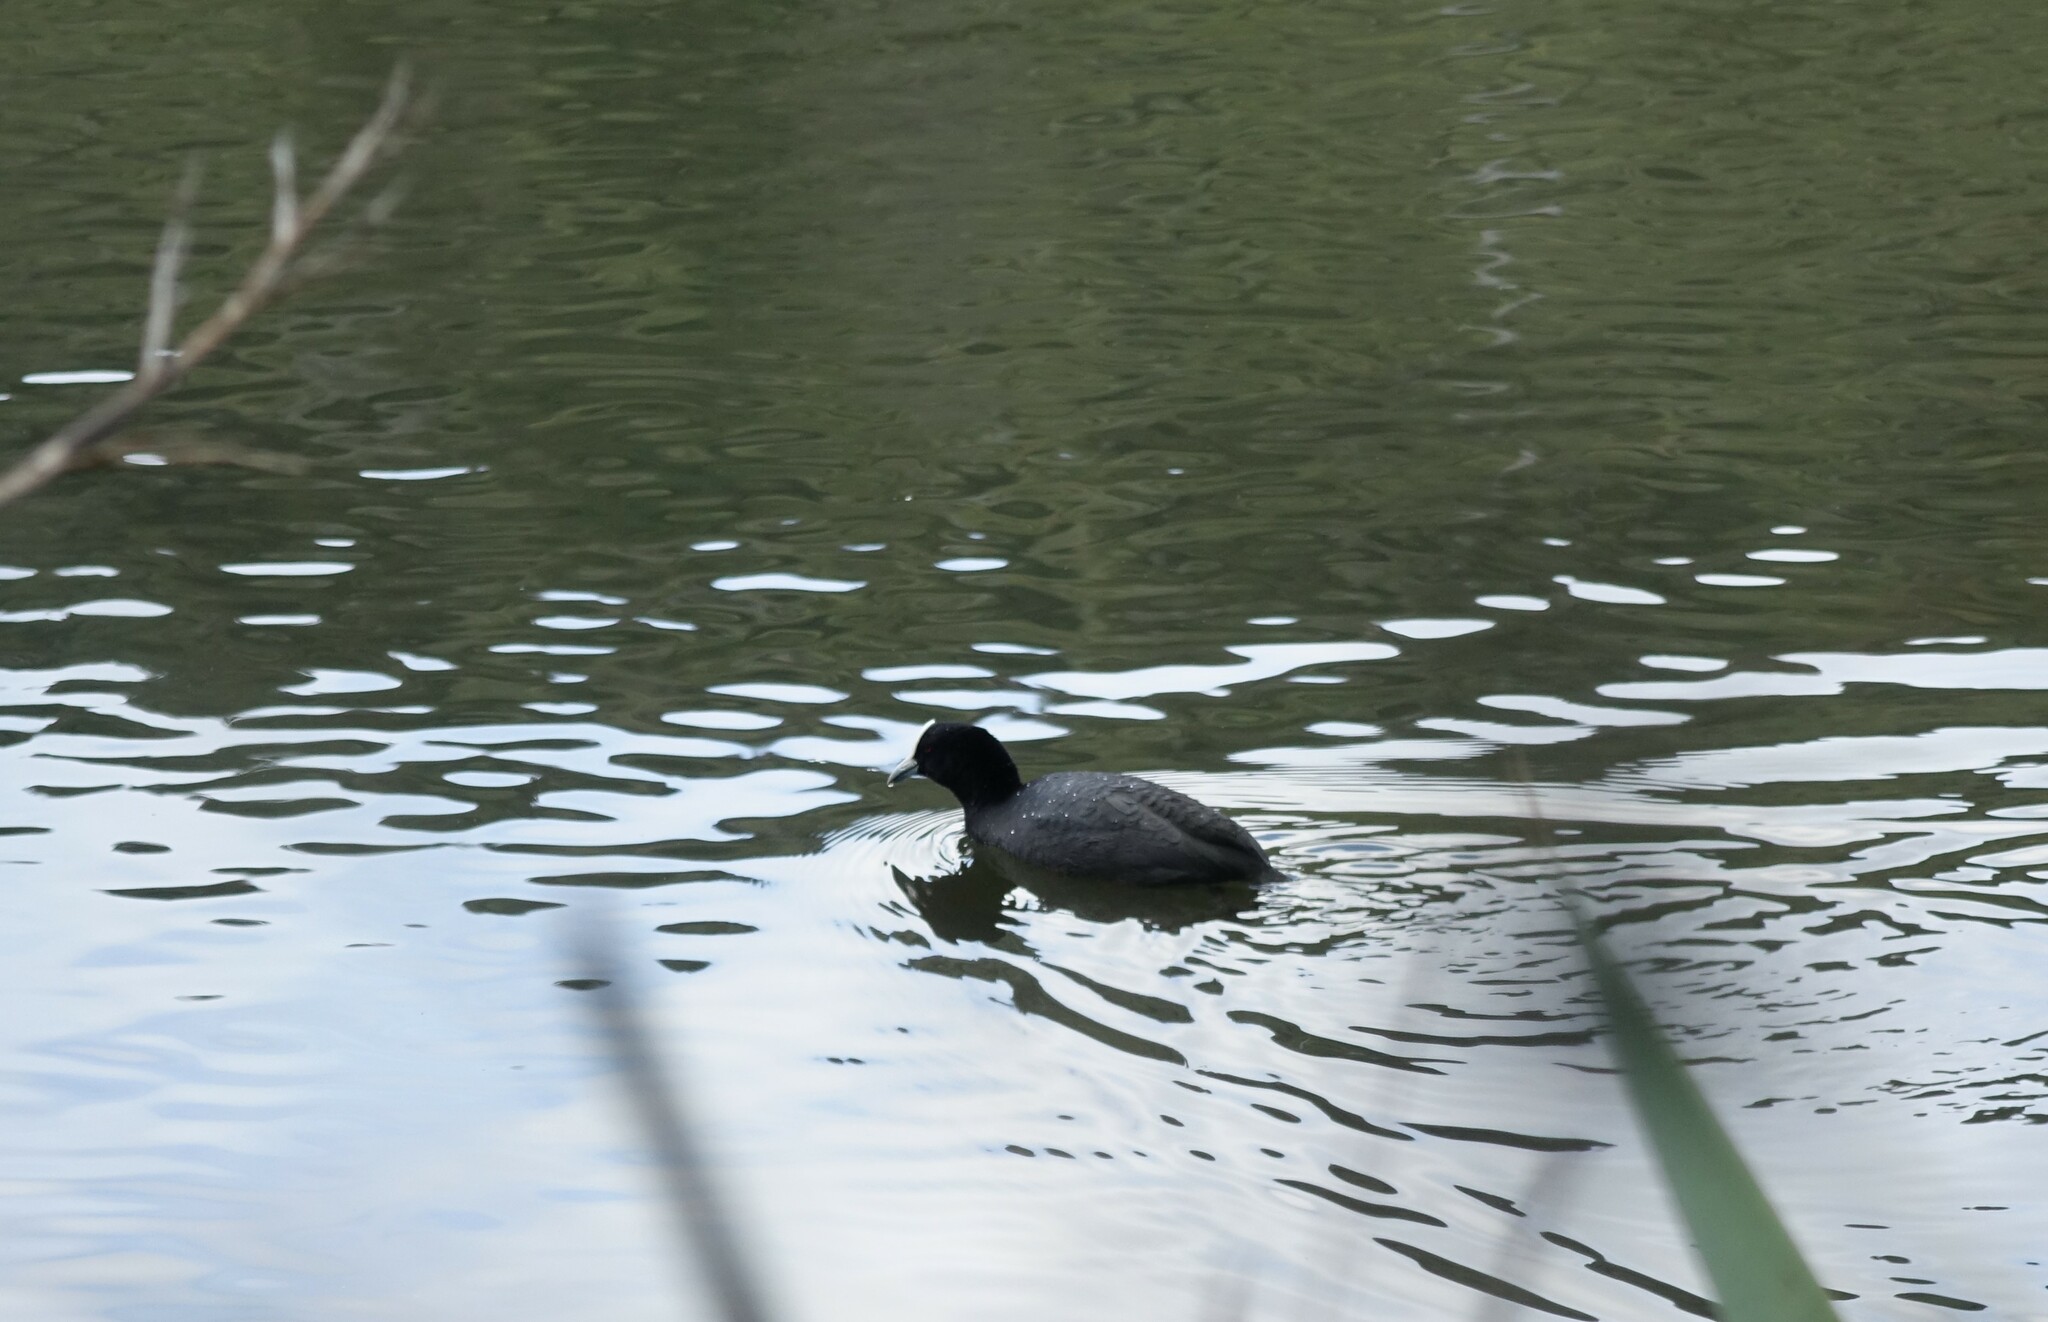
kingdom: Animalia
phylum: Chordata
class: Aves
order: Gruiformes
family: Rallidae
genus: Fulica
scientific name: Fulica atra
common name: Eurasian coot
